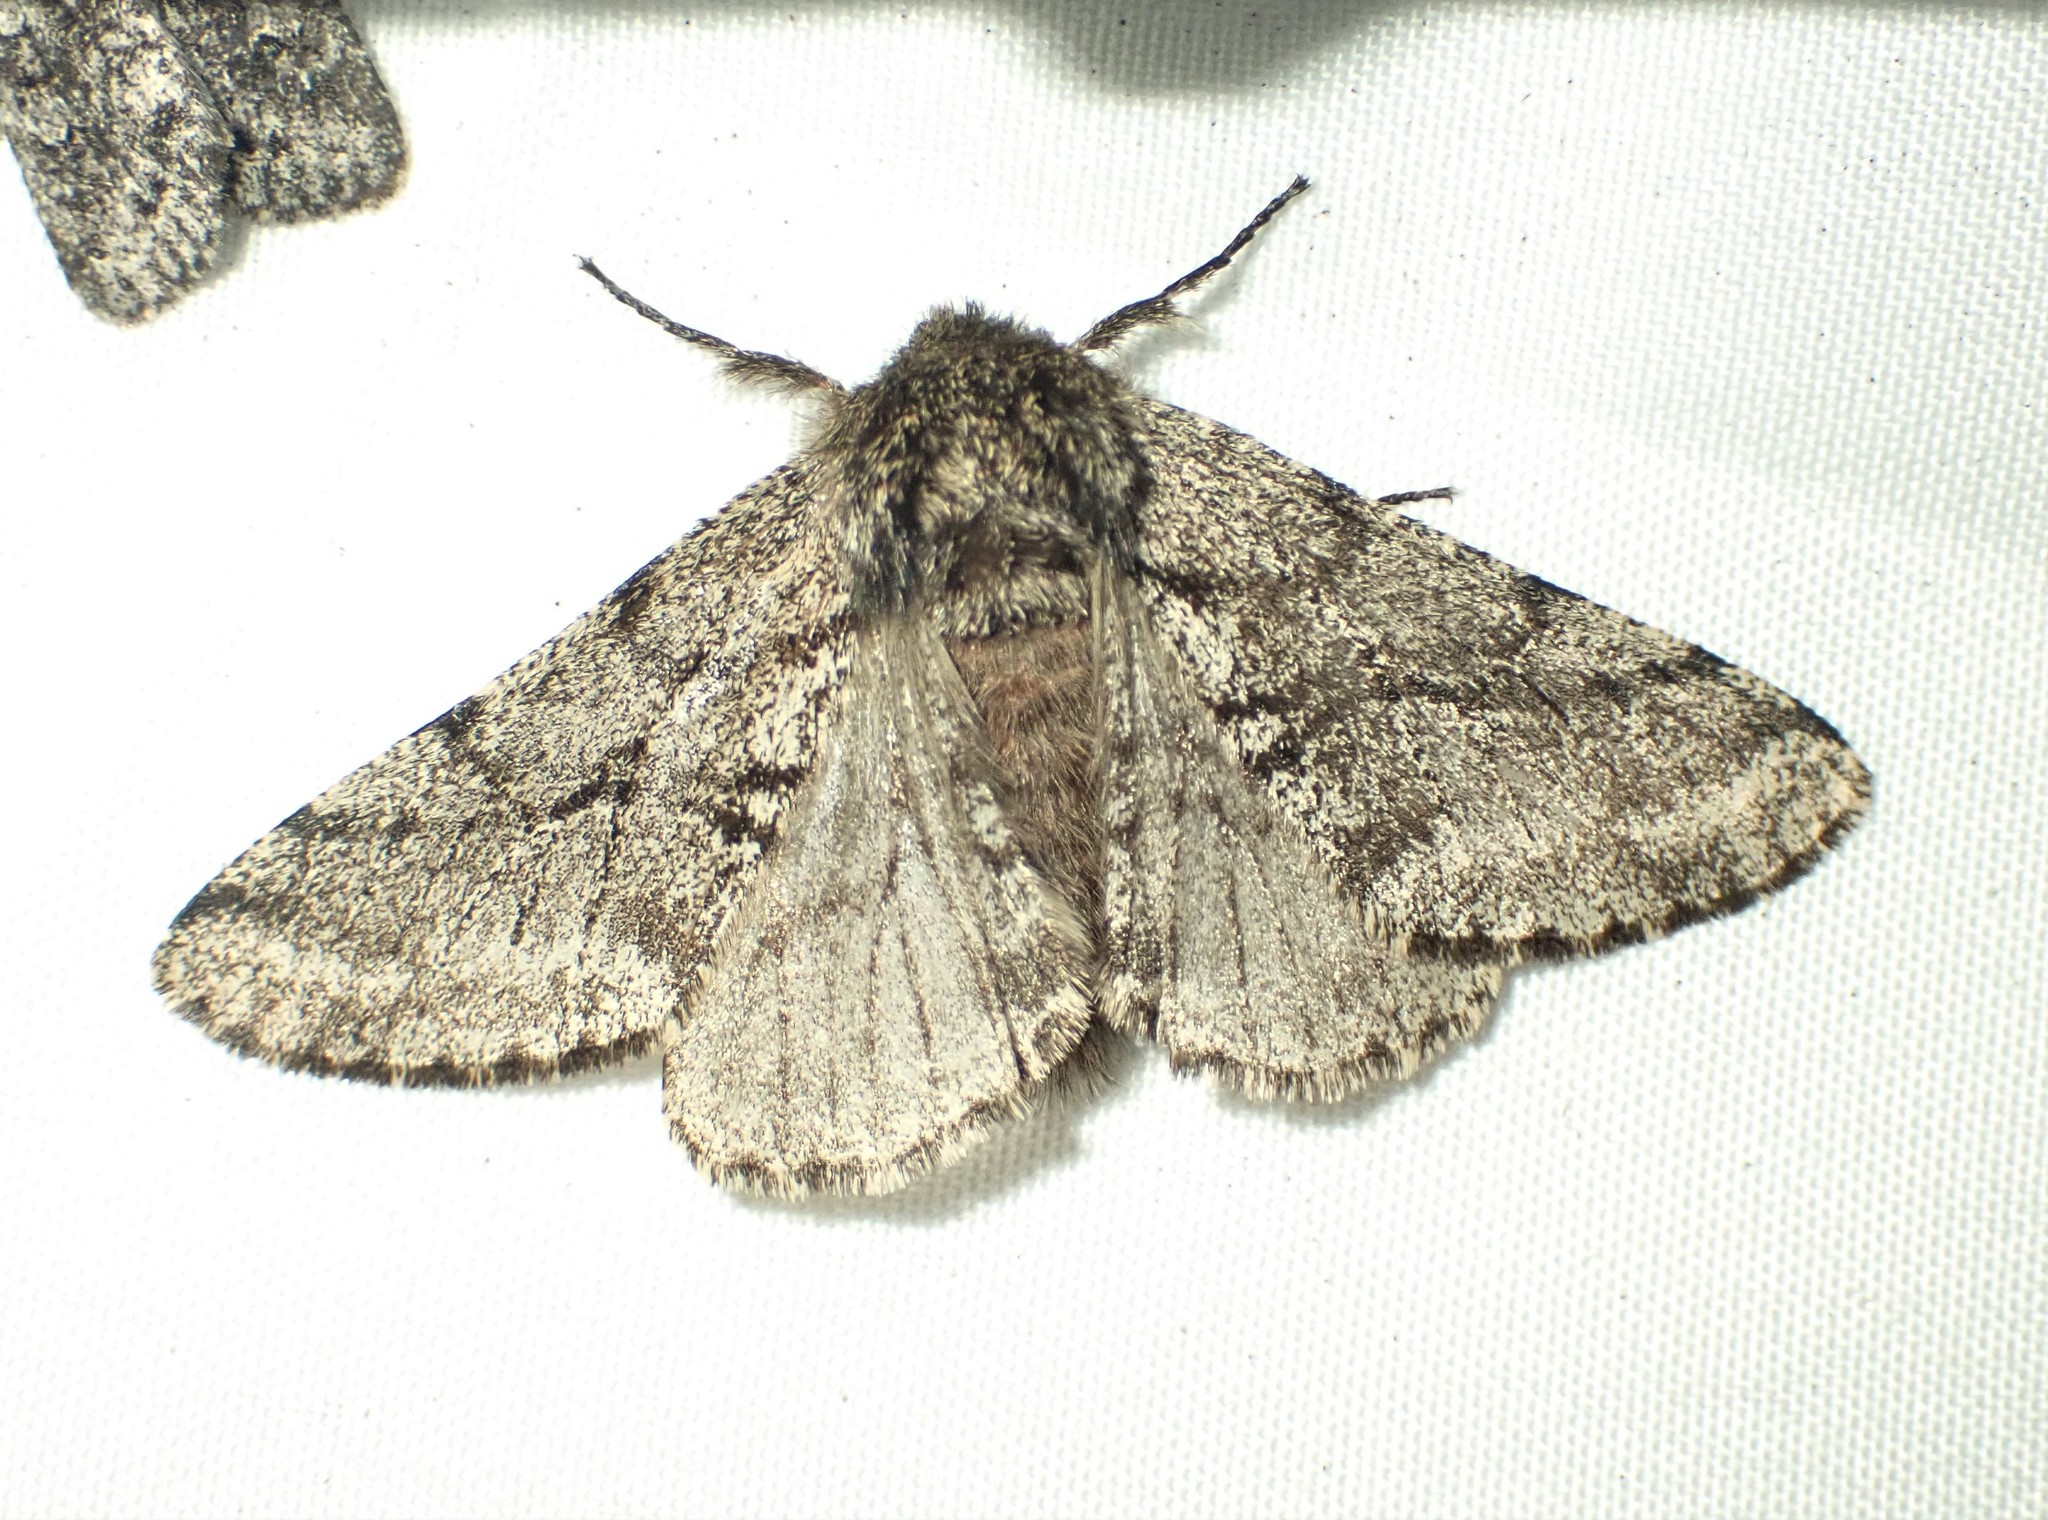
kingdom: Animalia
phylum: Arthropoda
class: Insecta
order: Lepidoptera
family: Geometridae
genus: Lycia
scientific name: Lycia ursaria
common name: Stout spanworm
